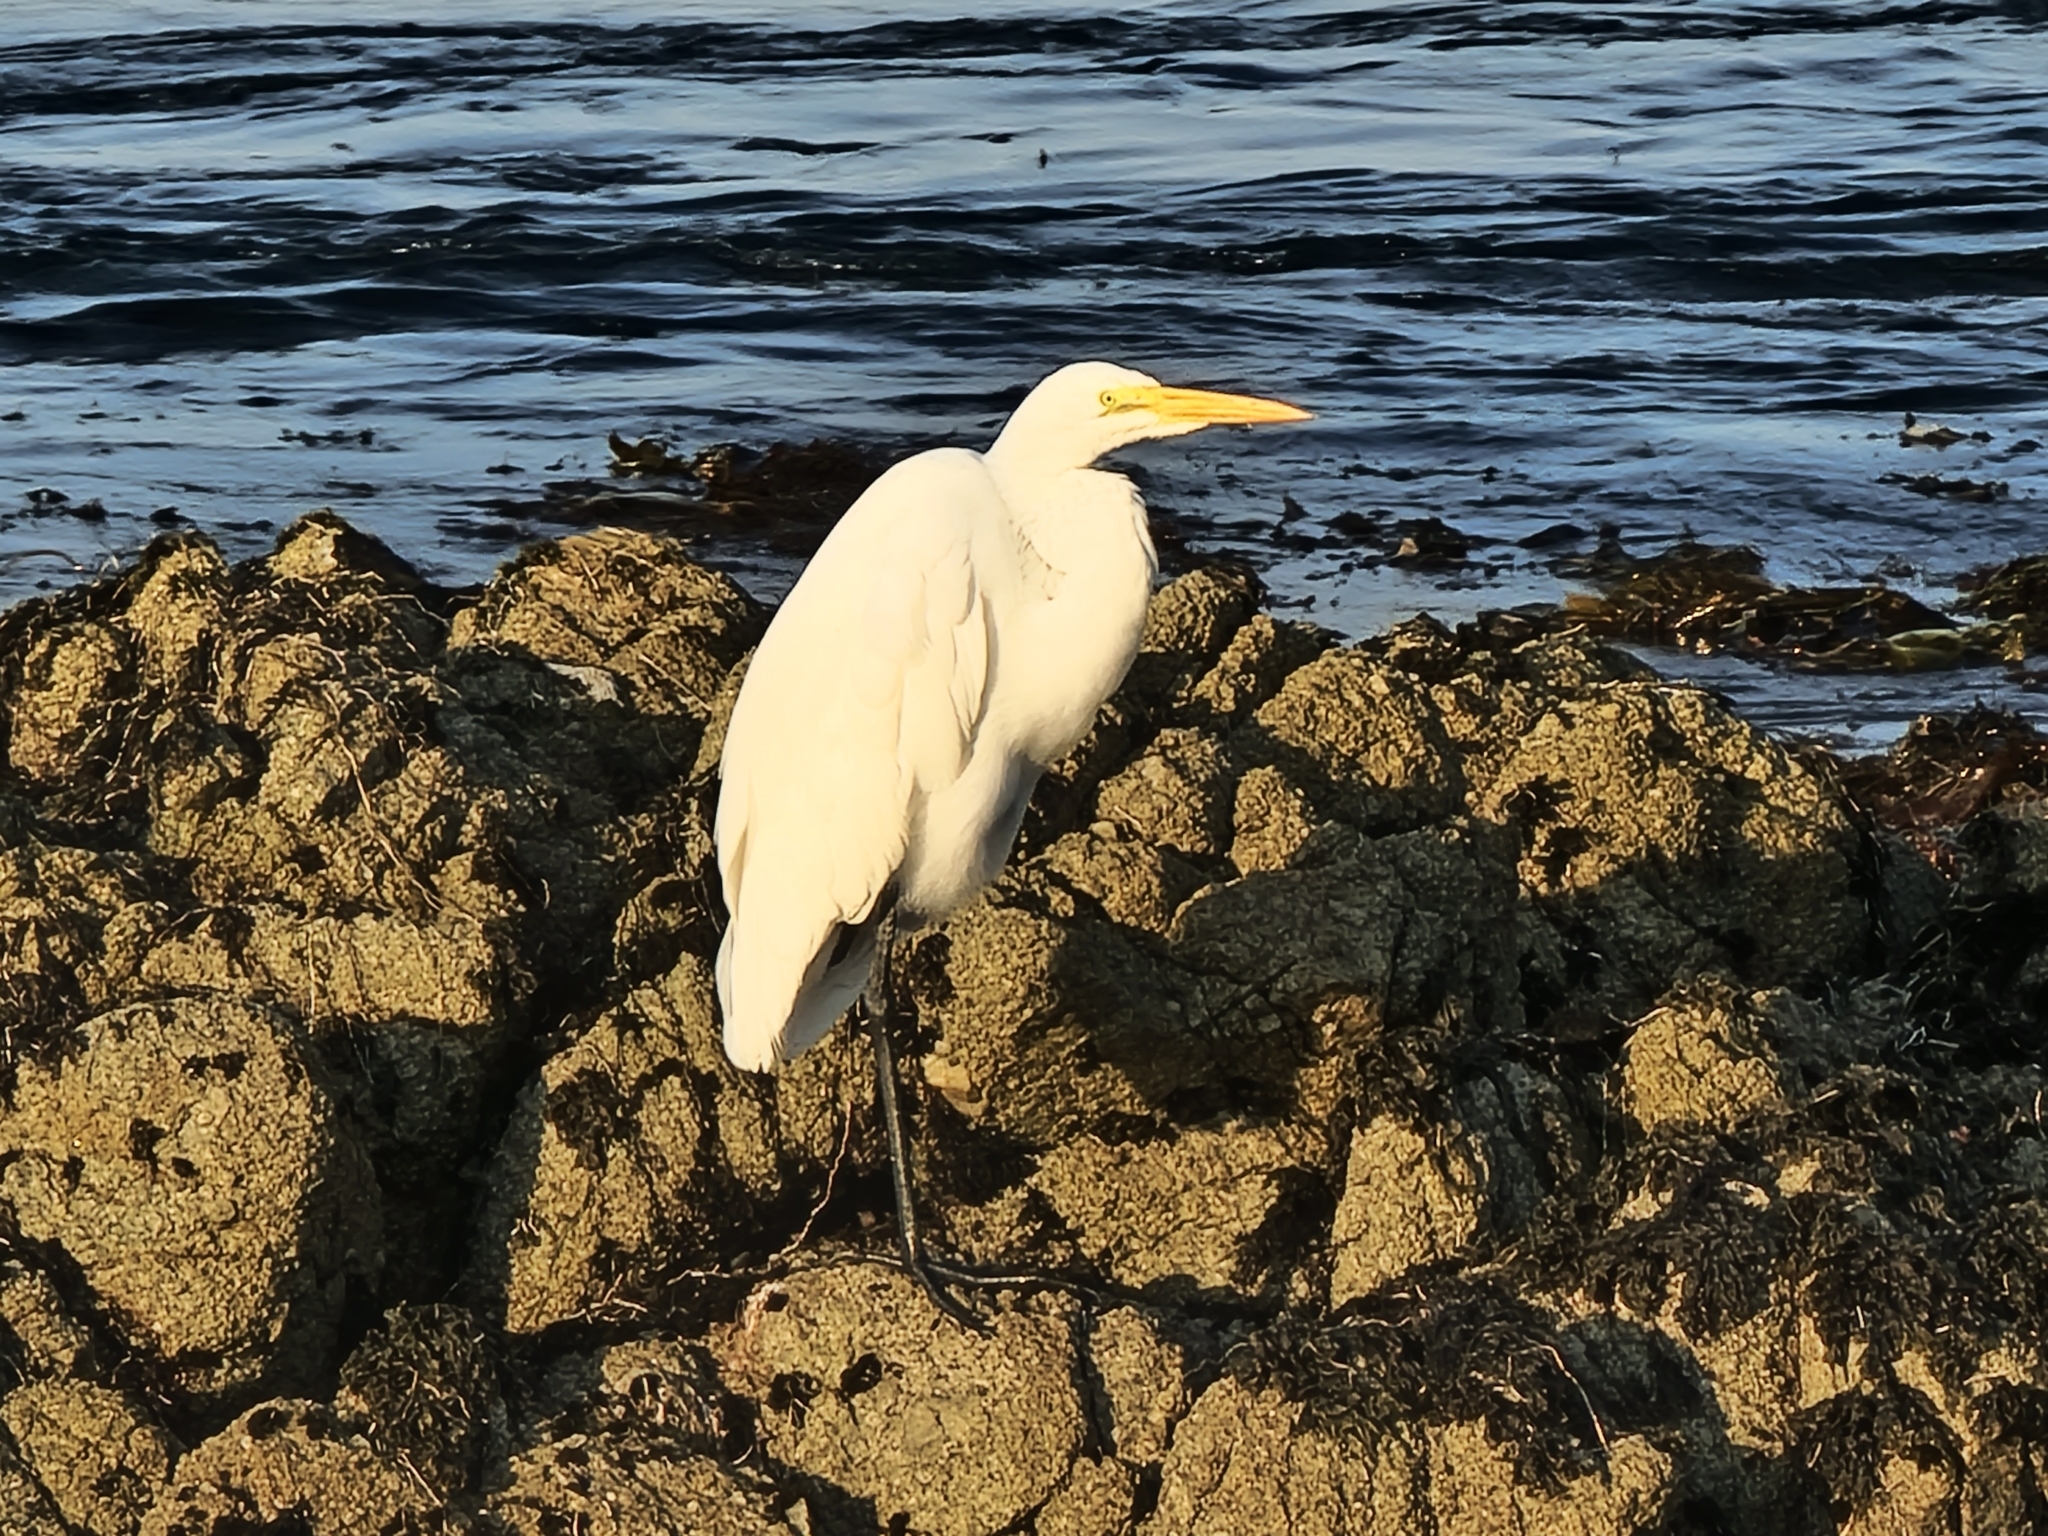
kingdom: Animalia
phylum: Chordata
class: Aves
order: Pelecaniformes
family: Ardeidae
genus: Ardea
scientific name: Ardea alba
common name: Great egret
